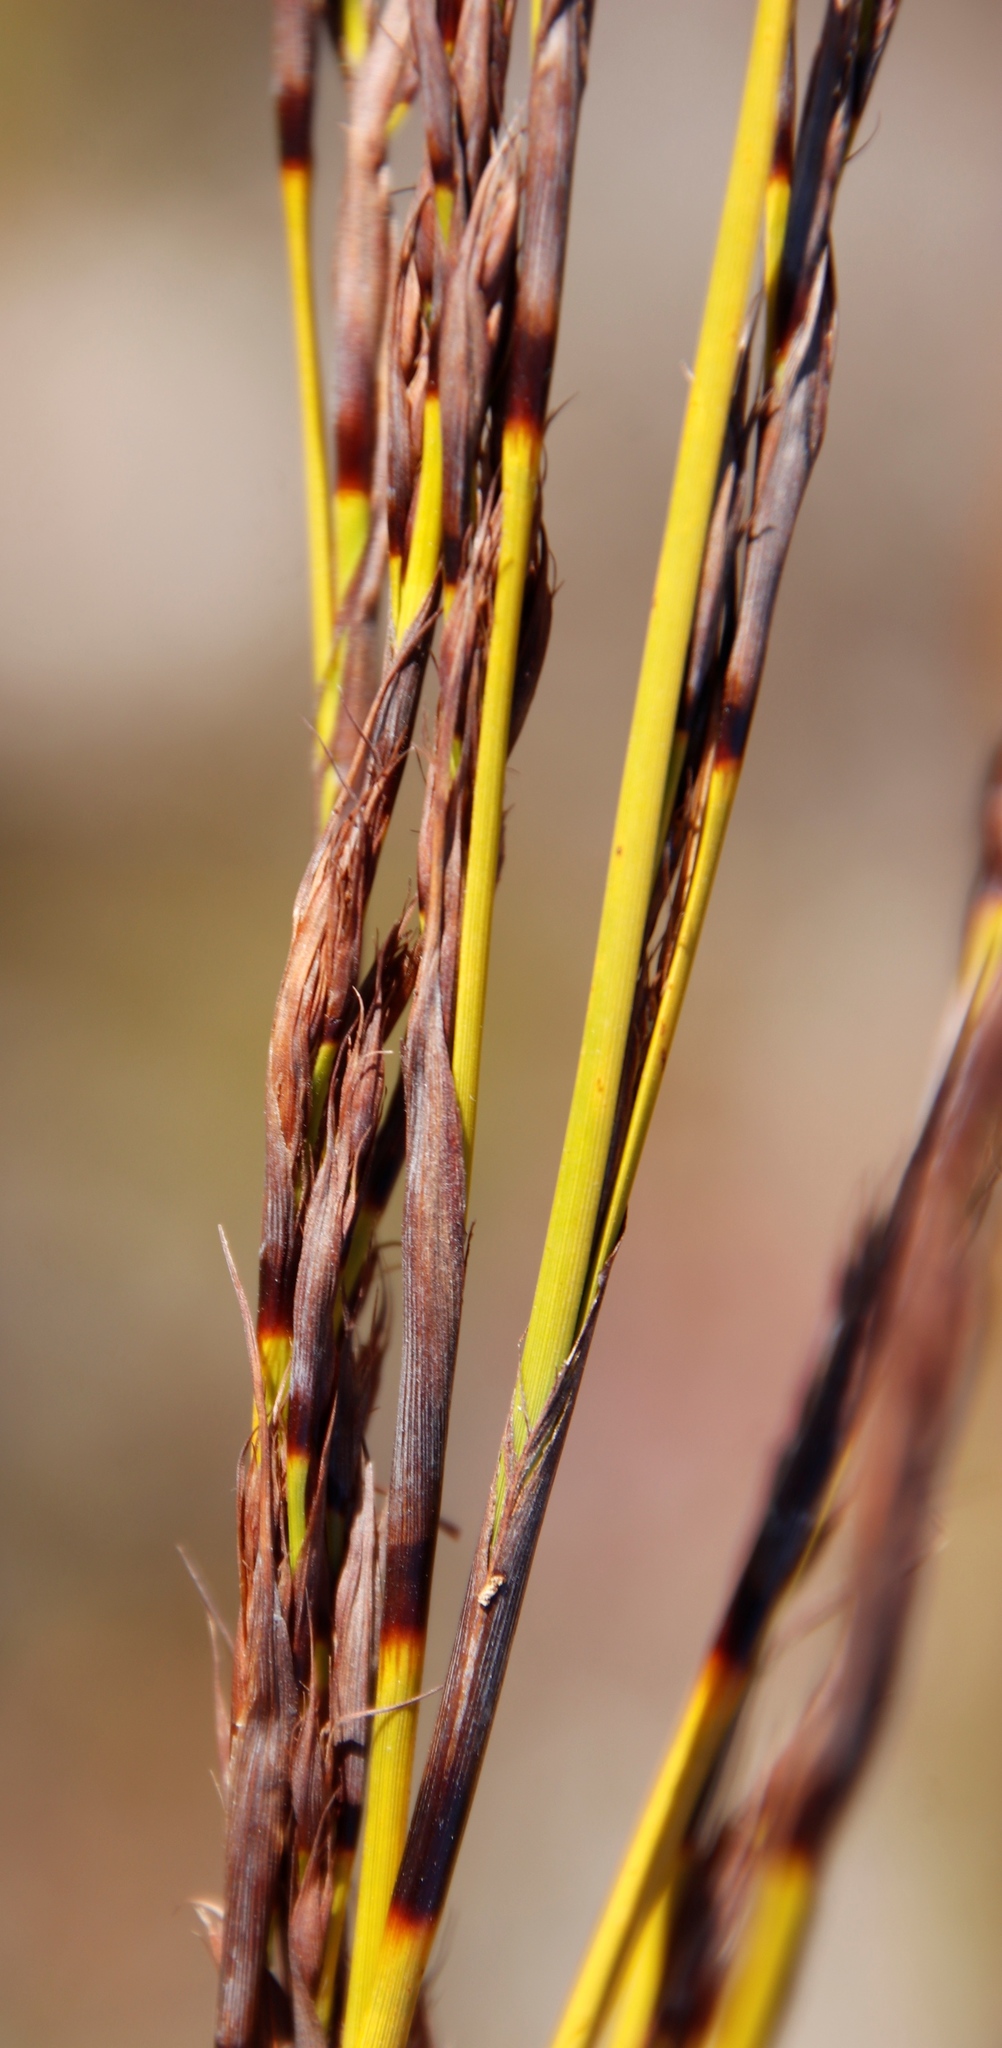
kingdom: Plantae
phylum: Tracheophyta
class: Liliopsida
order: Poales
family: Cyperaceae
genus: Tetraria
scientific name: Tetraria flexuosa
